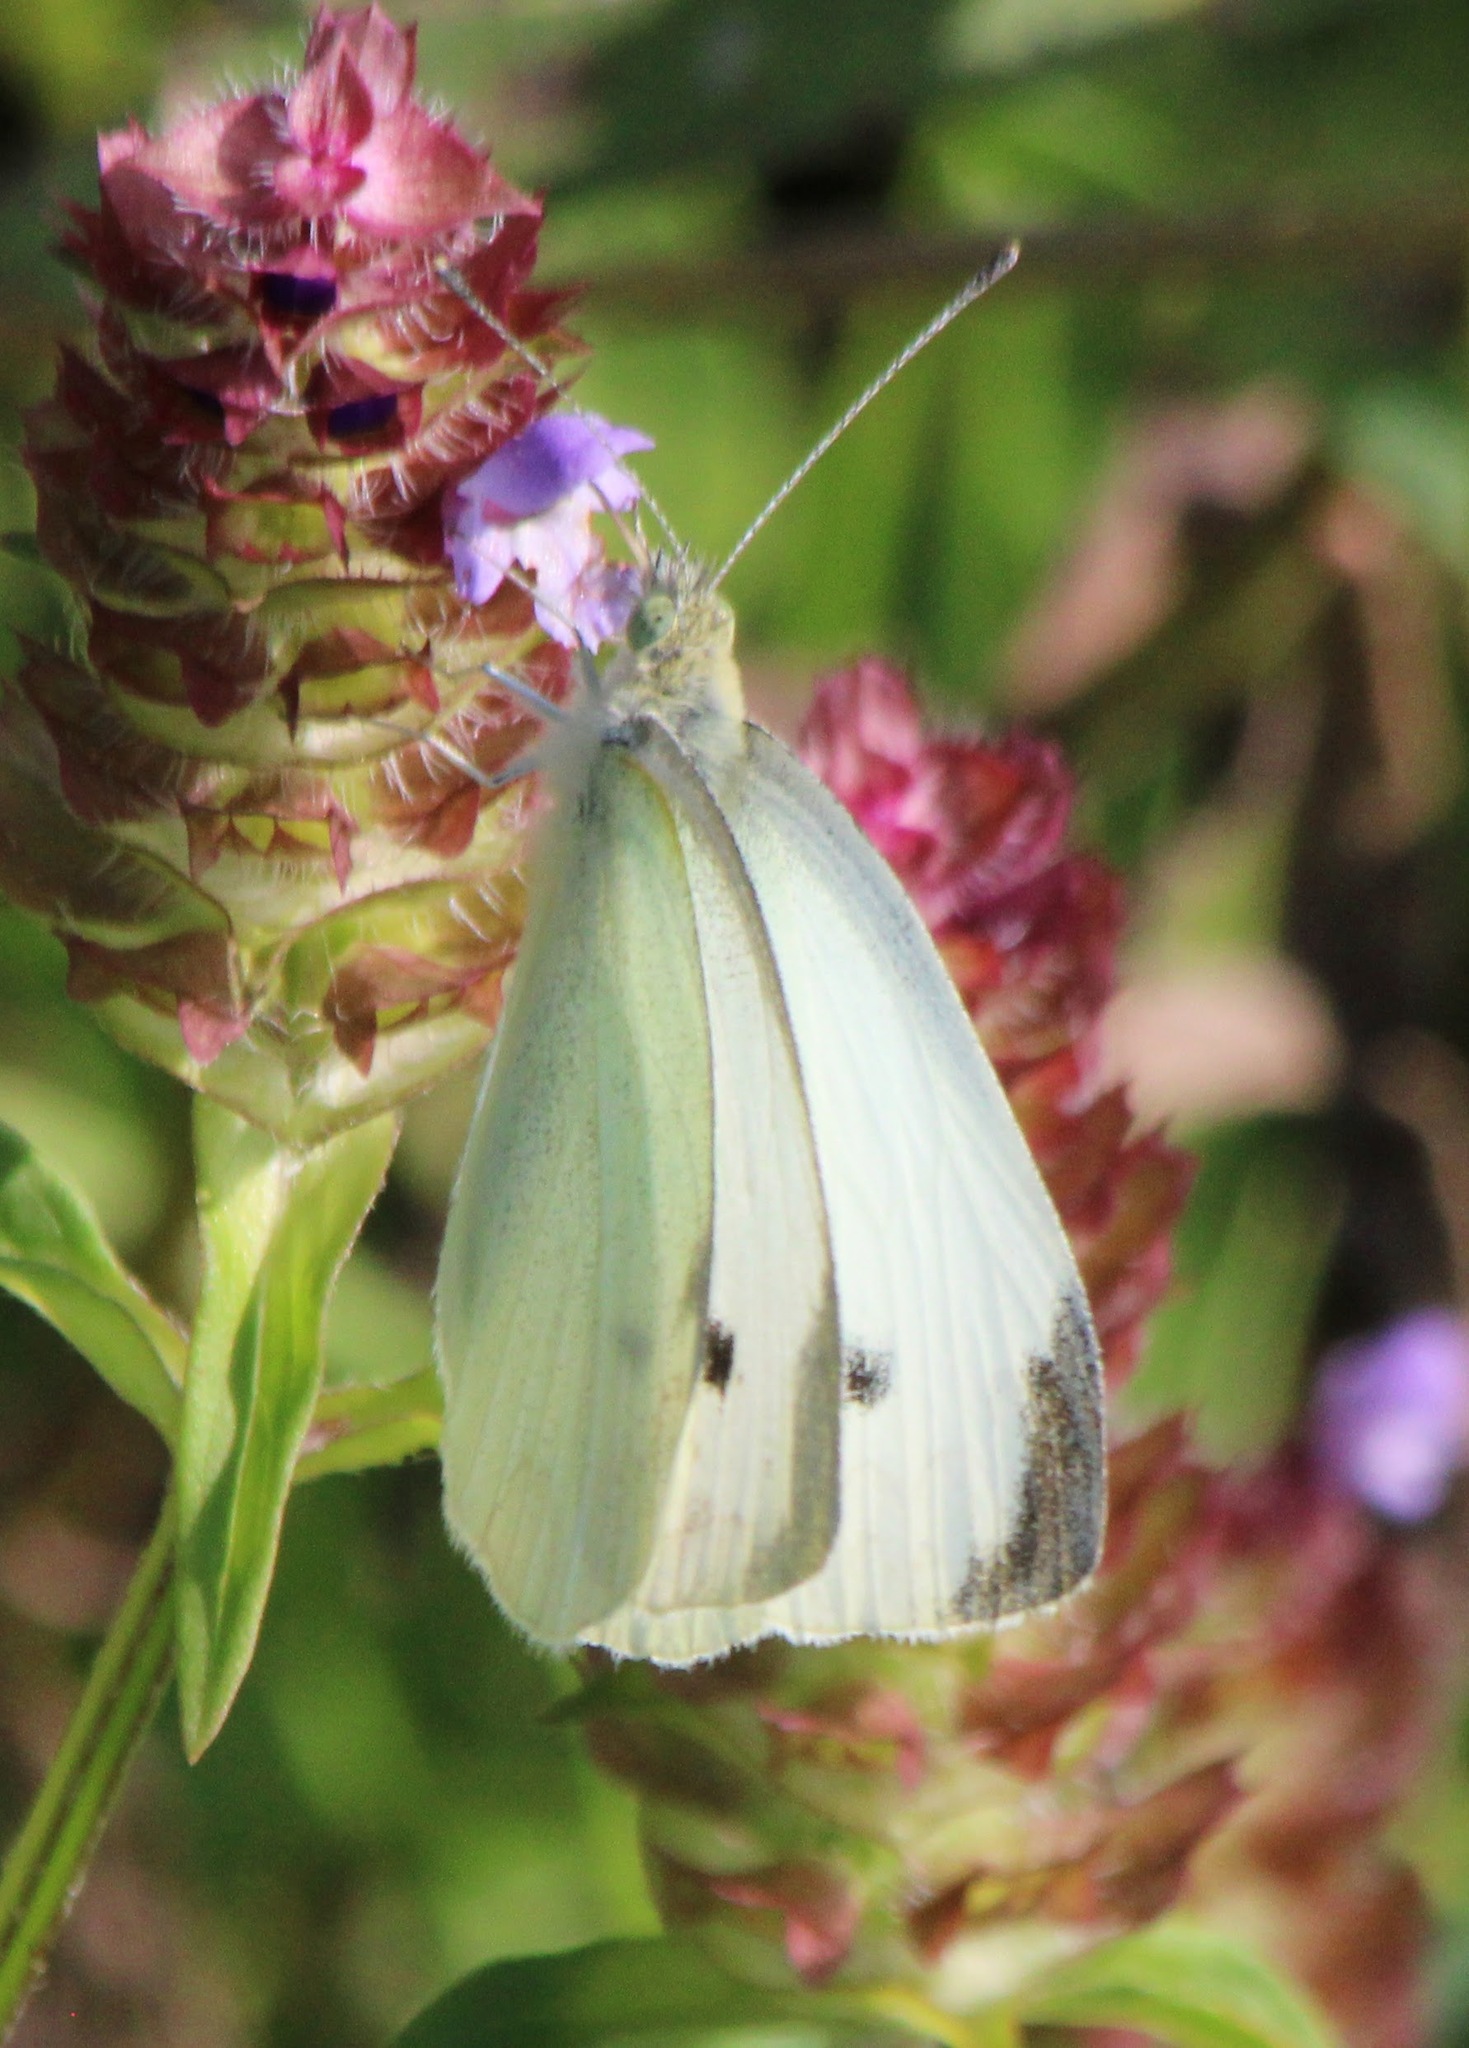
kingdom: Animalia
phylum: Arthropoda
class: Insecta
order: Lepidoptera
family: Pieridae
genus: Pieris
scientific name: Pieris rapae
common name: Small white
